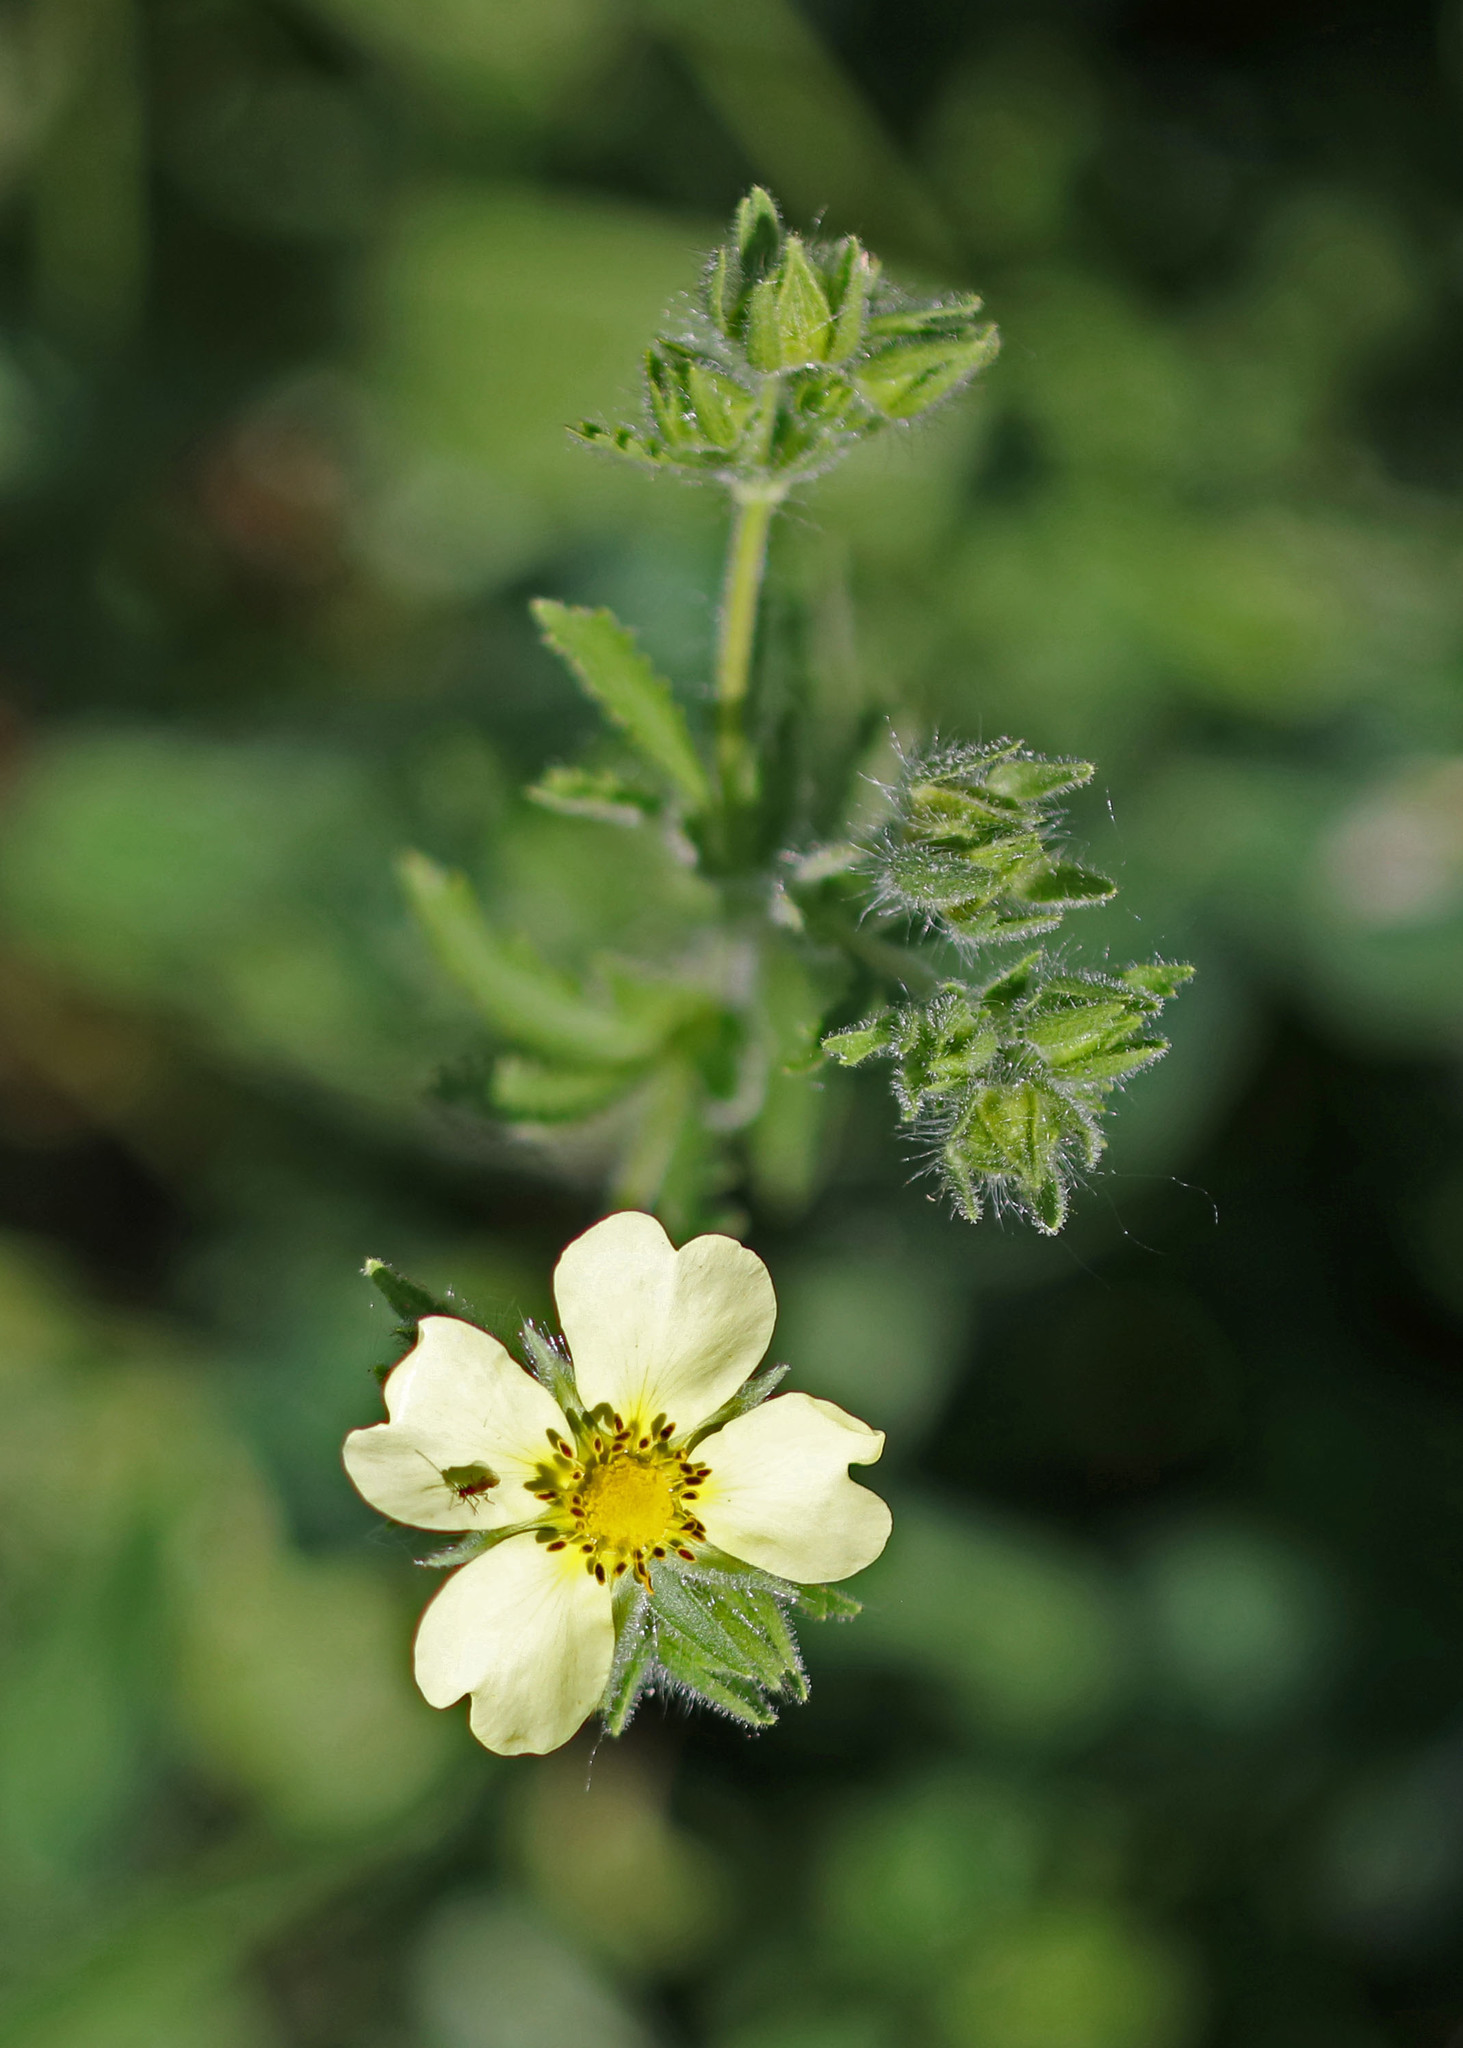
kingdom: Plantae
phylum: Tracheophyta
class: Magnoliopsida
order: Rosales
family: Rosaceae
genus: Potentilla
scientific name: Potentilla recta
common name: Sulphur cinquefoil
